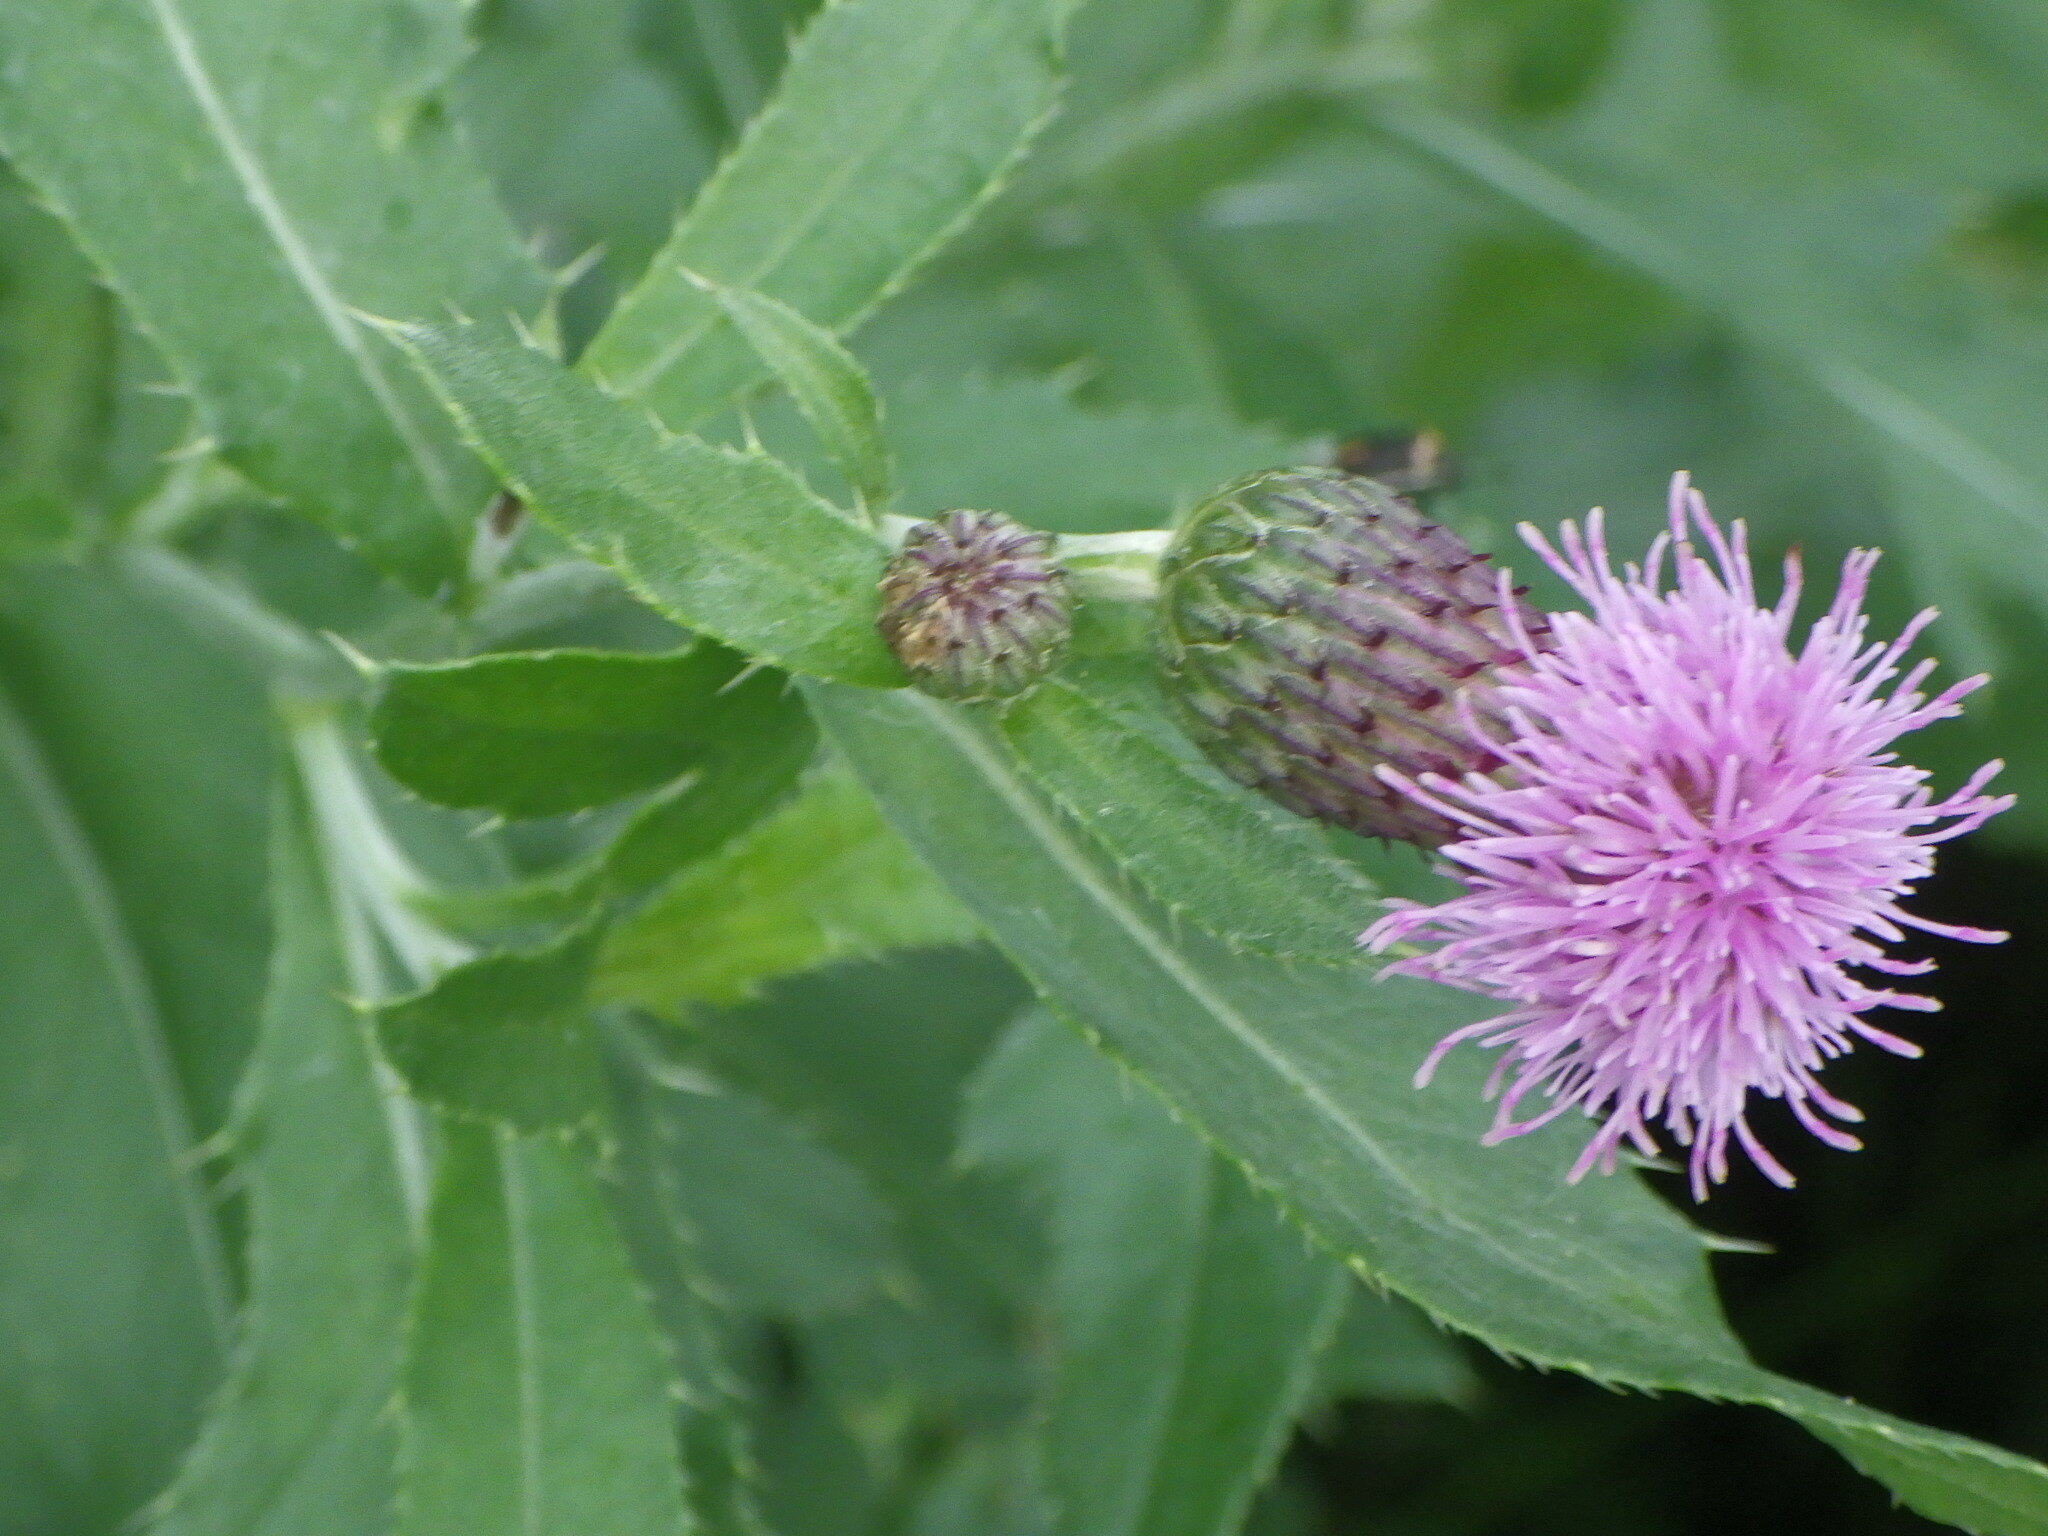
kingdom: Plantae
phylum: Tracheophyta
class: Magnoliopsida
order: Asterales
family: Asteraceae
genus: Cirsium
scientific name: Cirsium arvense
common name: Creeping thistle
